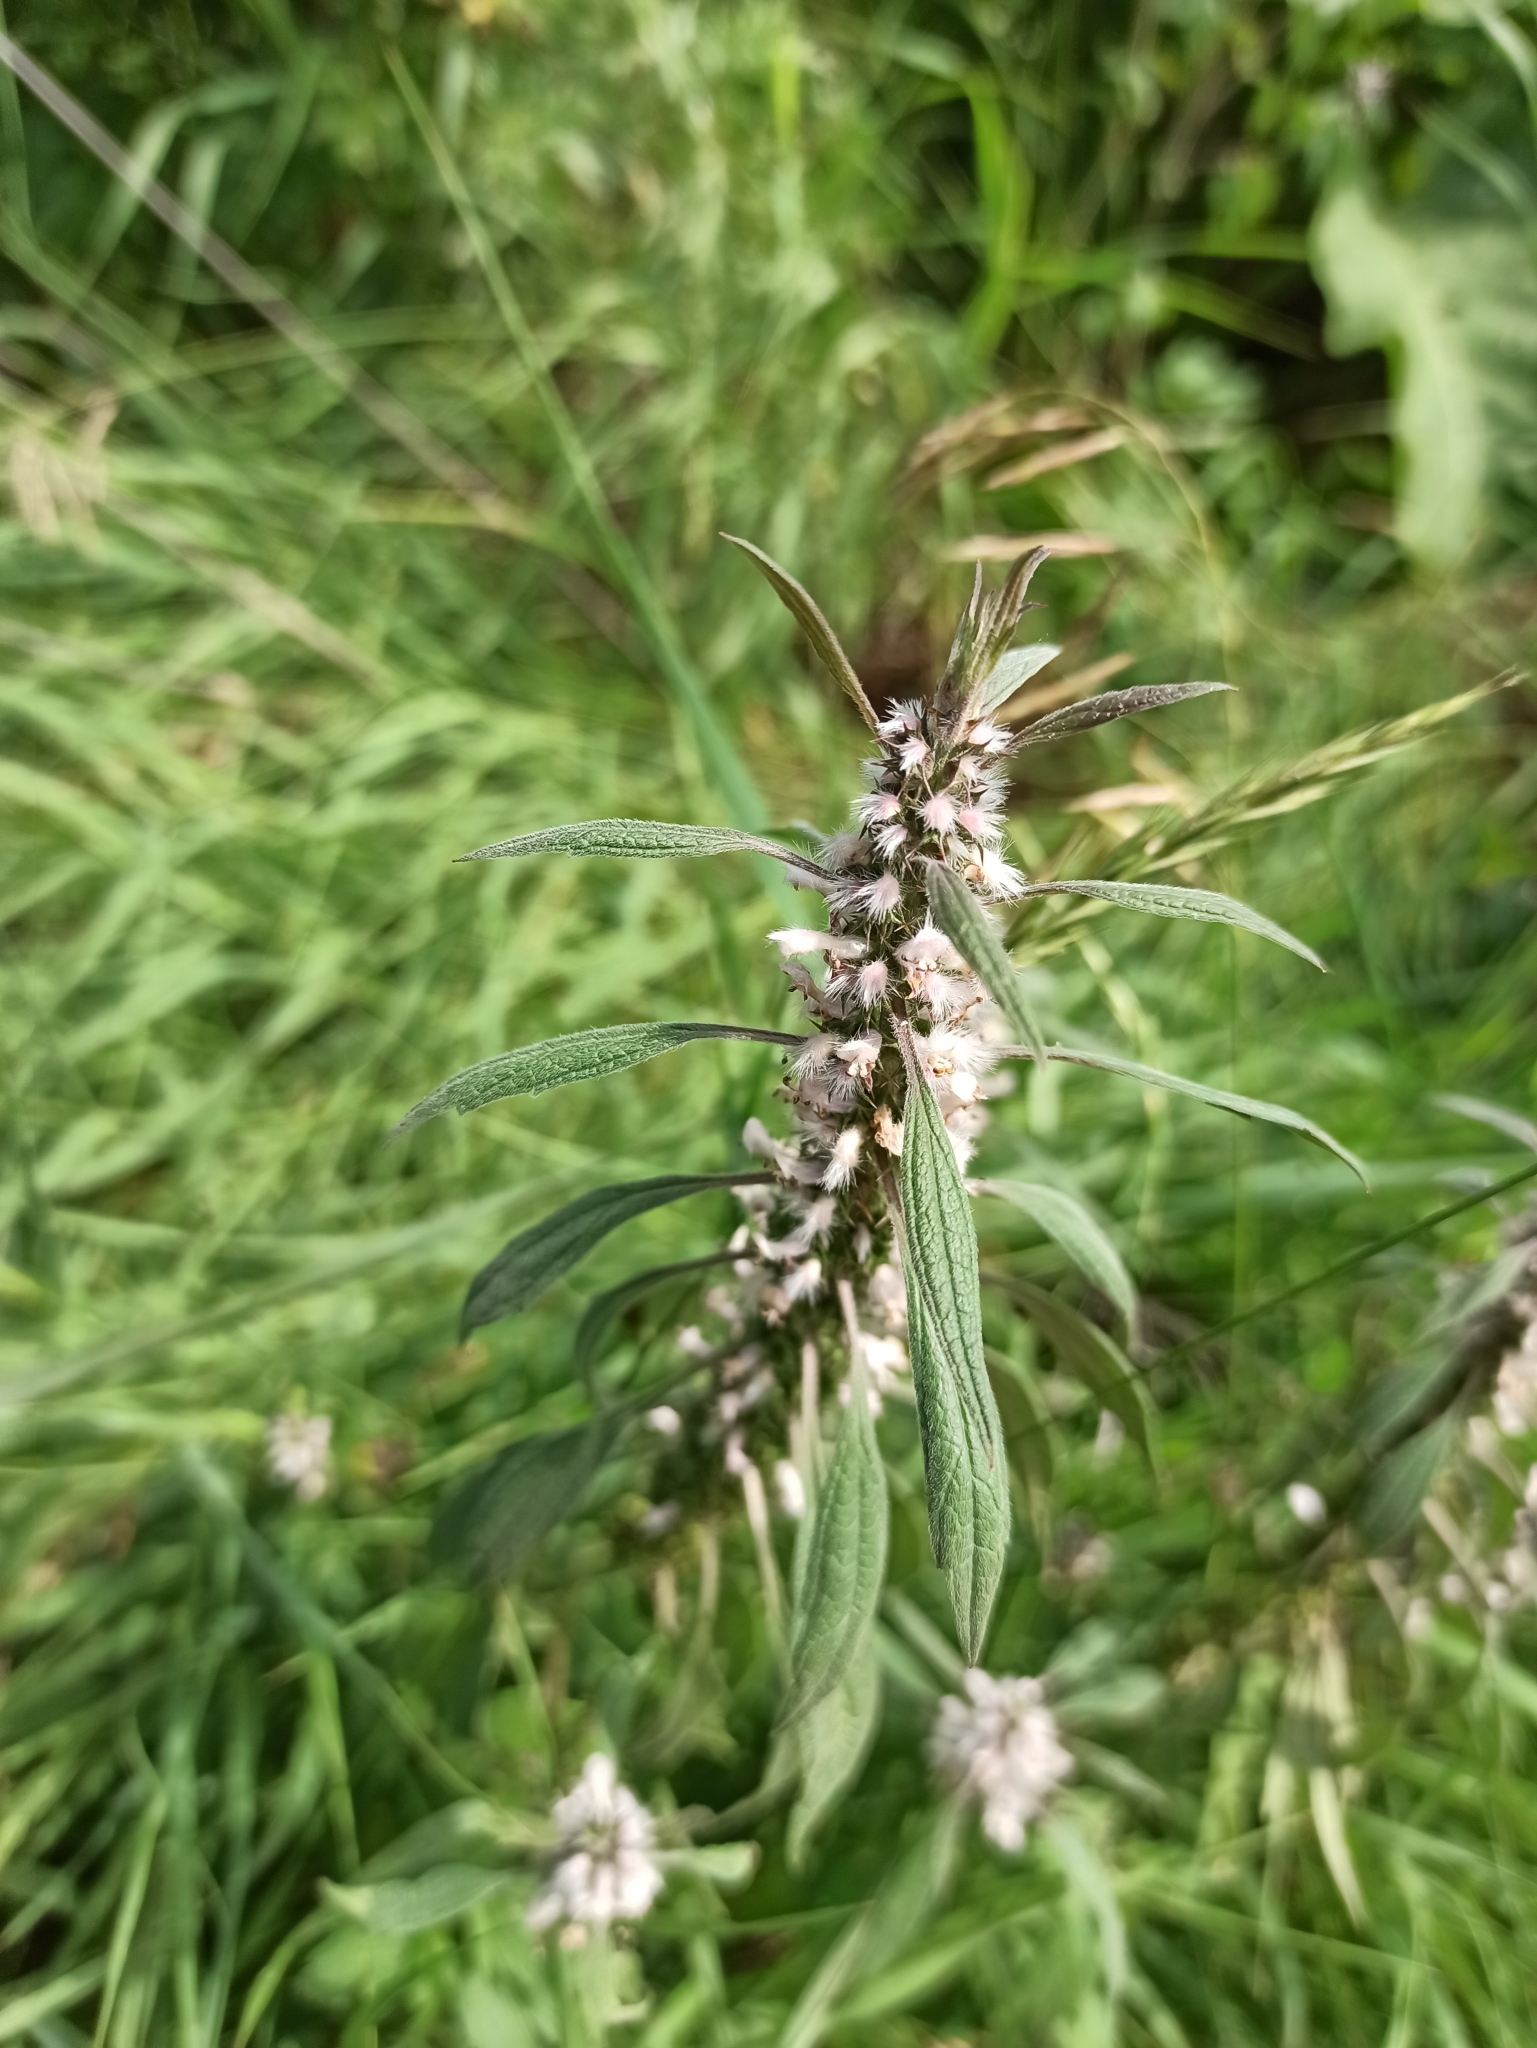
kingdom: Plantae
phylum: Tracheophyta
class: Magnoliopsida
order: Lamiales
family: Lamiaceae
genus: Leonurus
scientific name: Leonurus quinquelobatus
